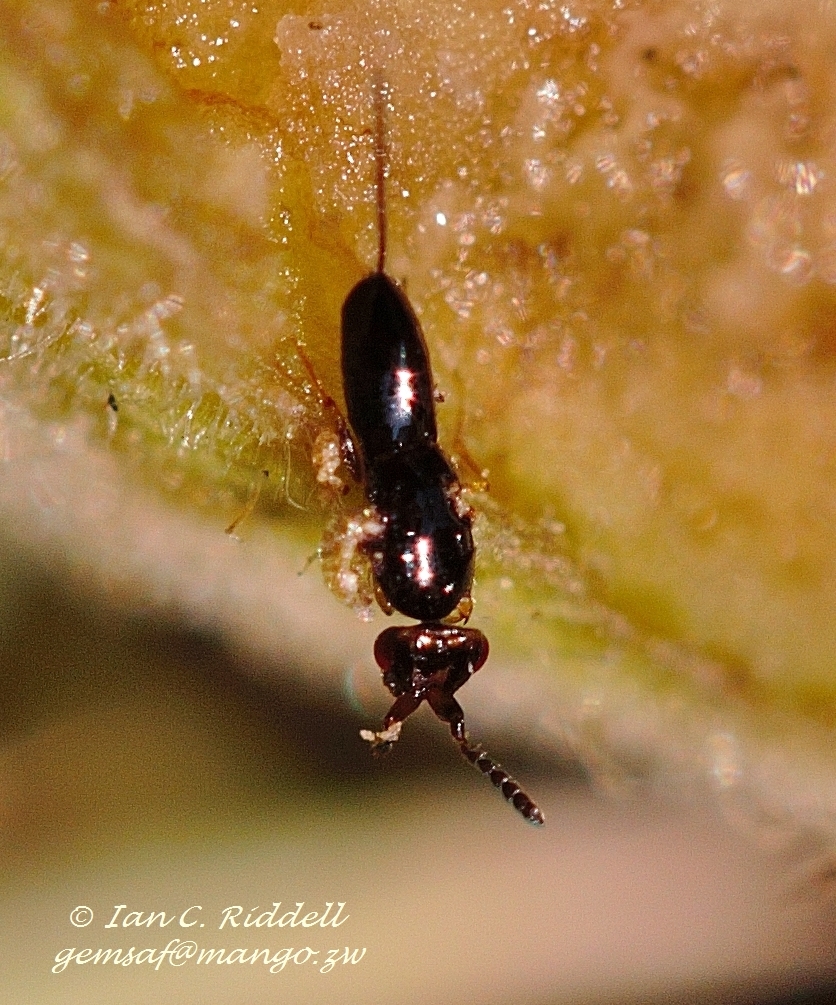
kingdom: Animalia
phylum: Arthropoda
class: Insecta
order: Hymenoptera
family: Agaonidae
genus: Ceratosolen
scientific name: Ceratosolen capensis
